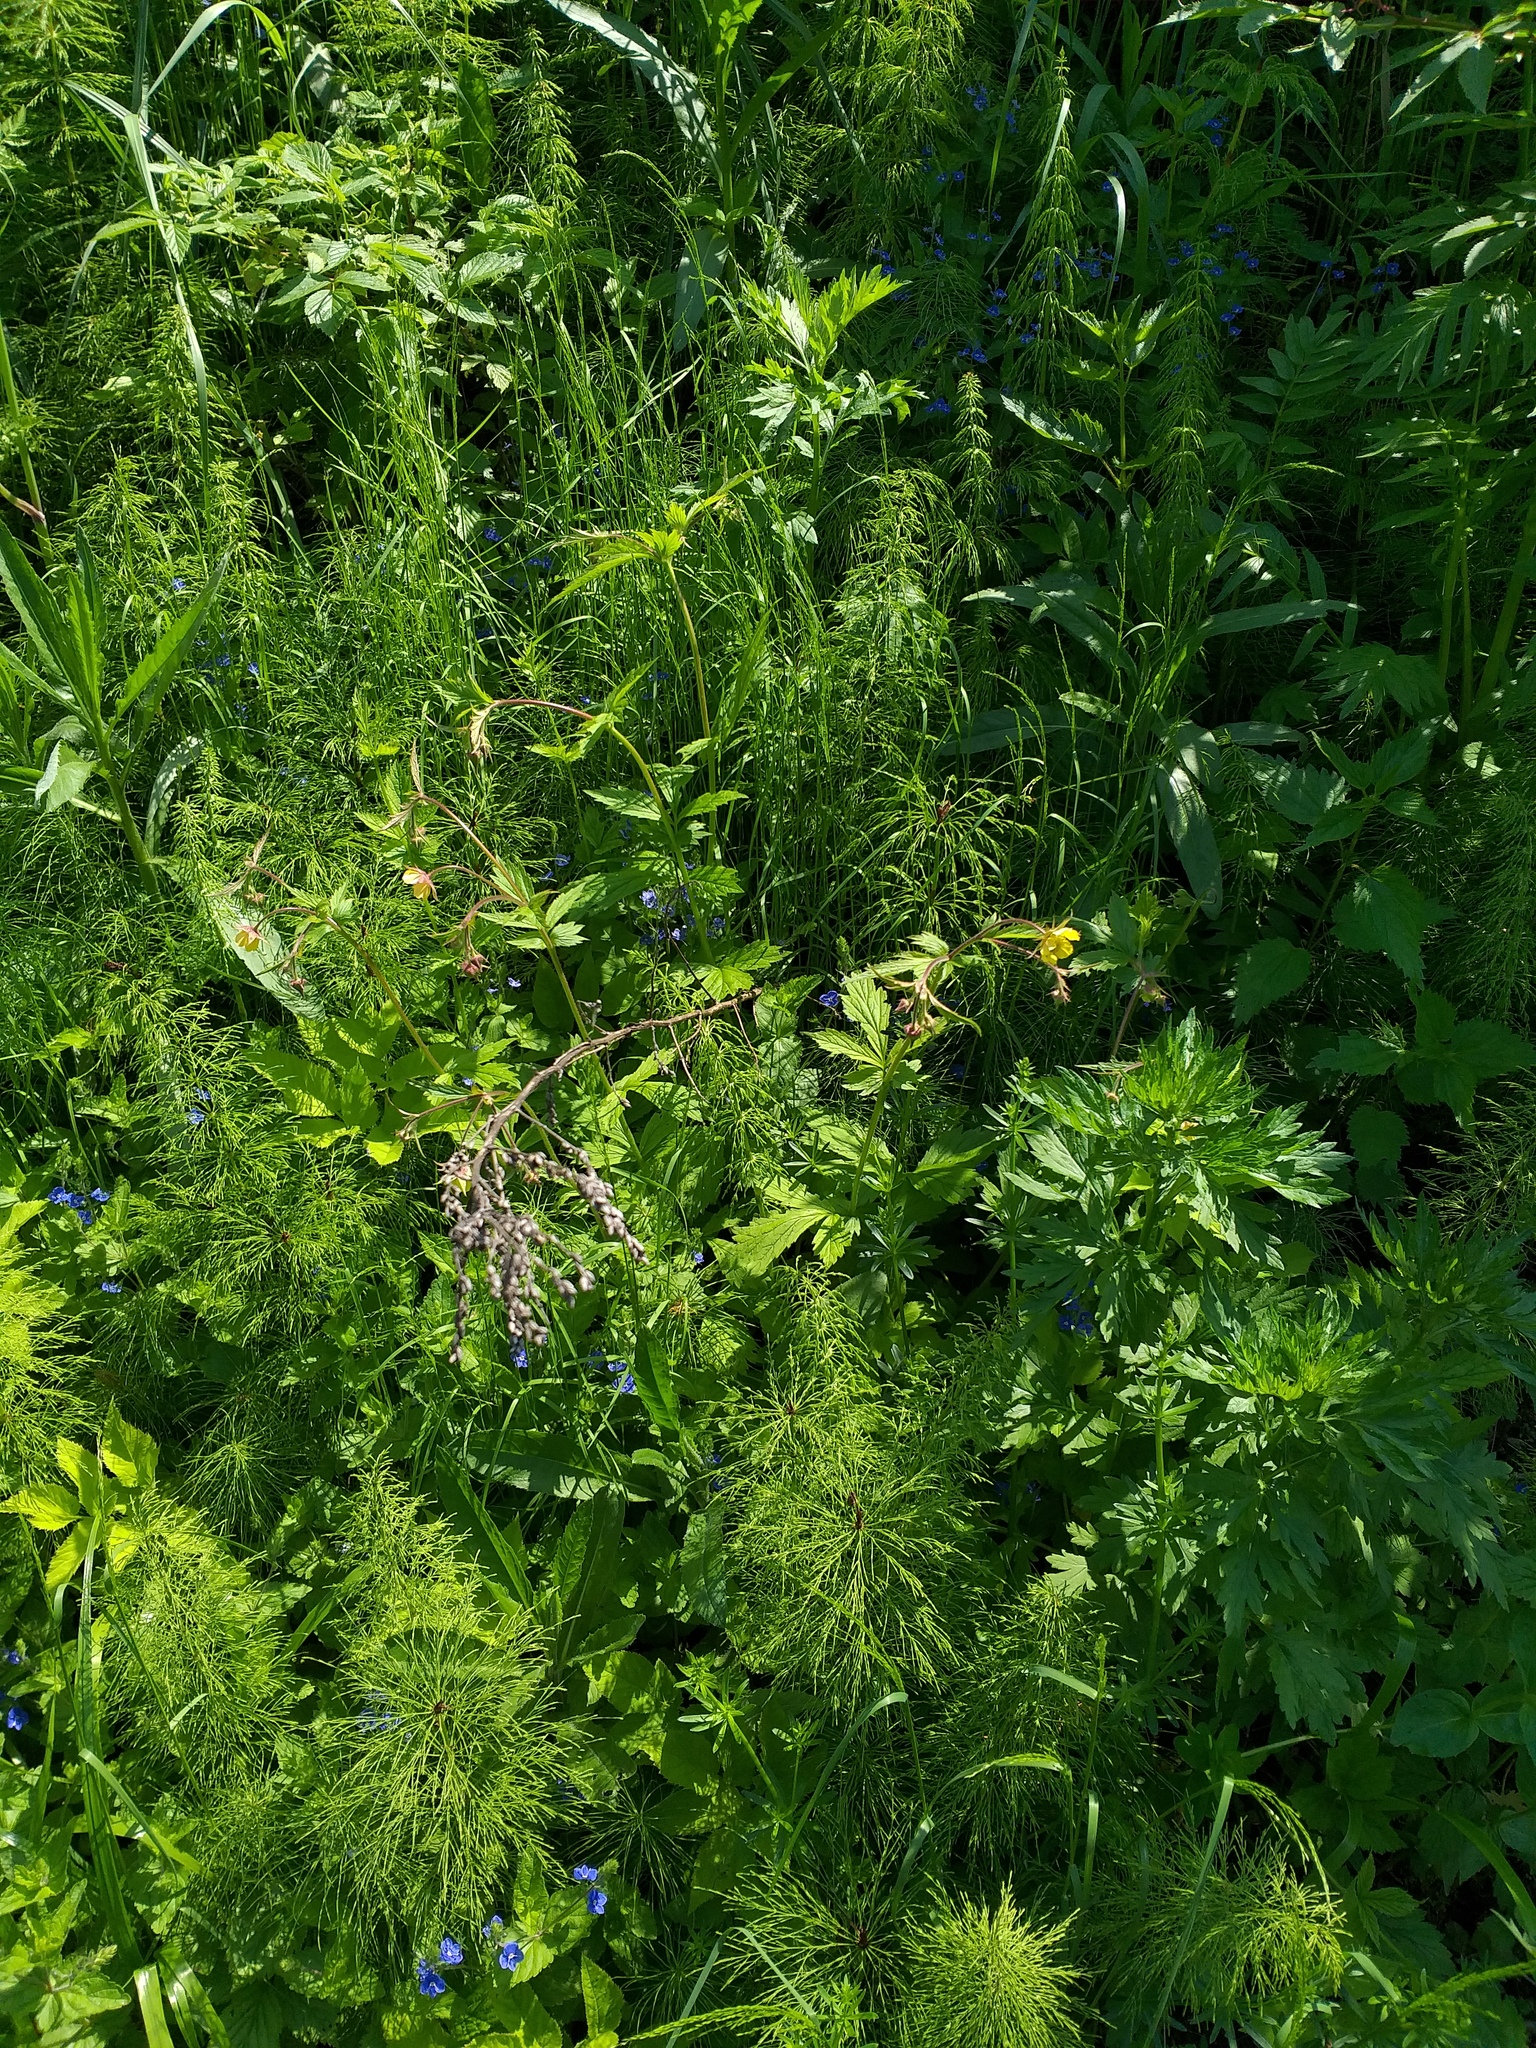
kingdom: Plantae
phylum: Tracheophyta
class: Magnoliopsida
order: Rosales
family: Rosaceae
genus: Geum
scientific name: Geum intermedium
